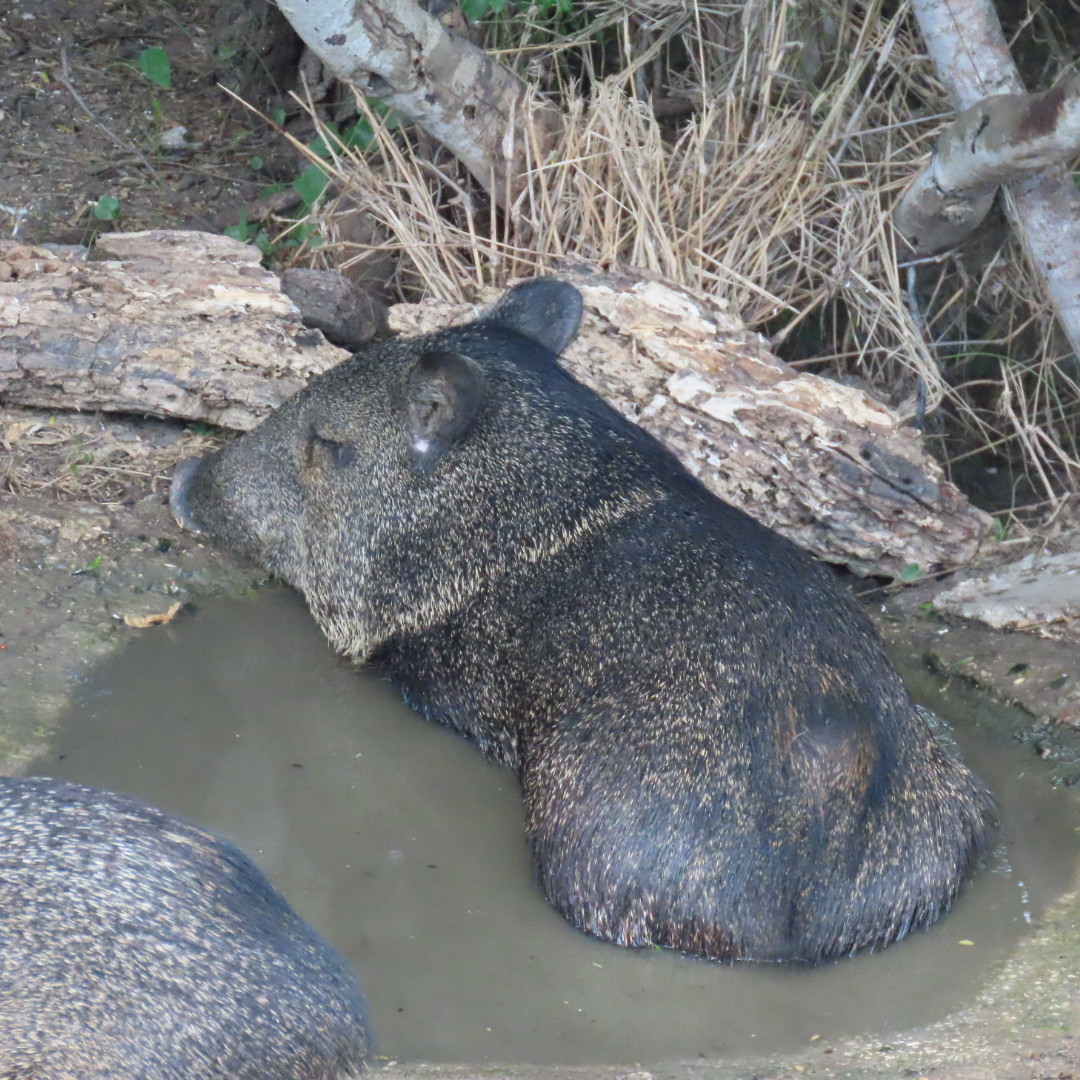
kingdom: Animalia
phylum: Chordata
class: Mammalia
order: Artiodactyla
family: Tayassuidae
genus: Pecari
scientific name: Pecari tajacu
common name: Collared peccary
